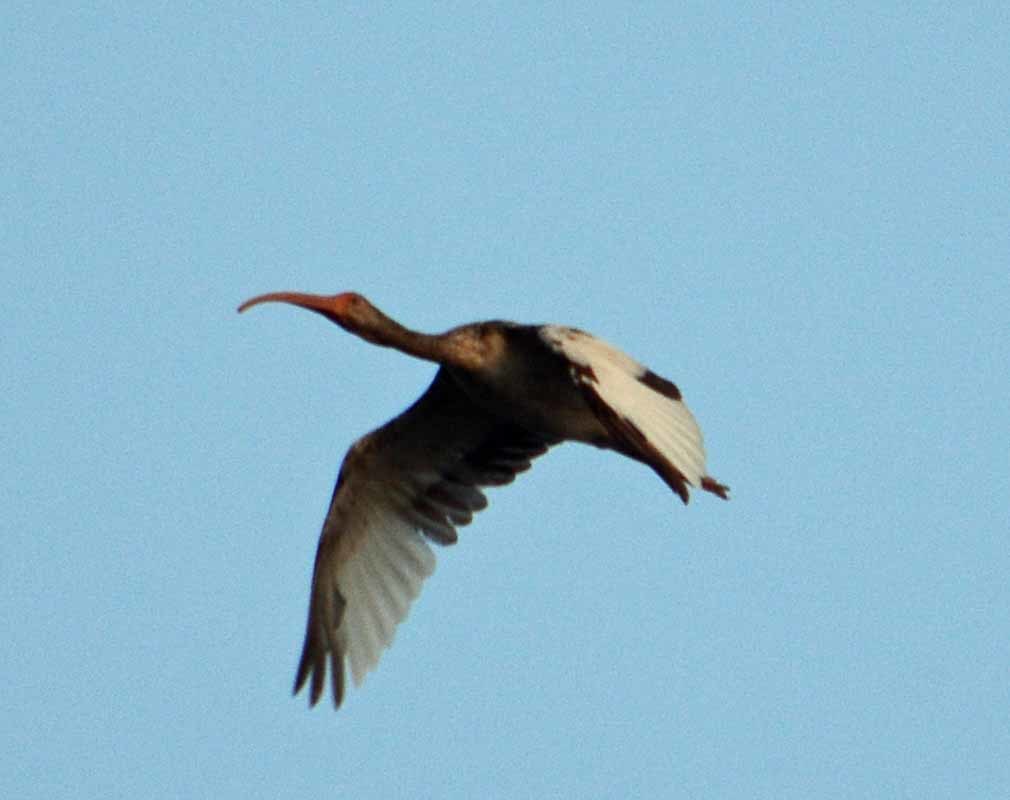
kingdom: Animalia
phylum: Chordata
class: Aves
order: Pelecaniformes
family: Threskiornithidae
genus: Eudocimus
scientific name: Eudocimus albus
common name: White ibis
